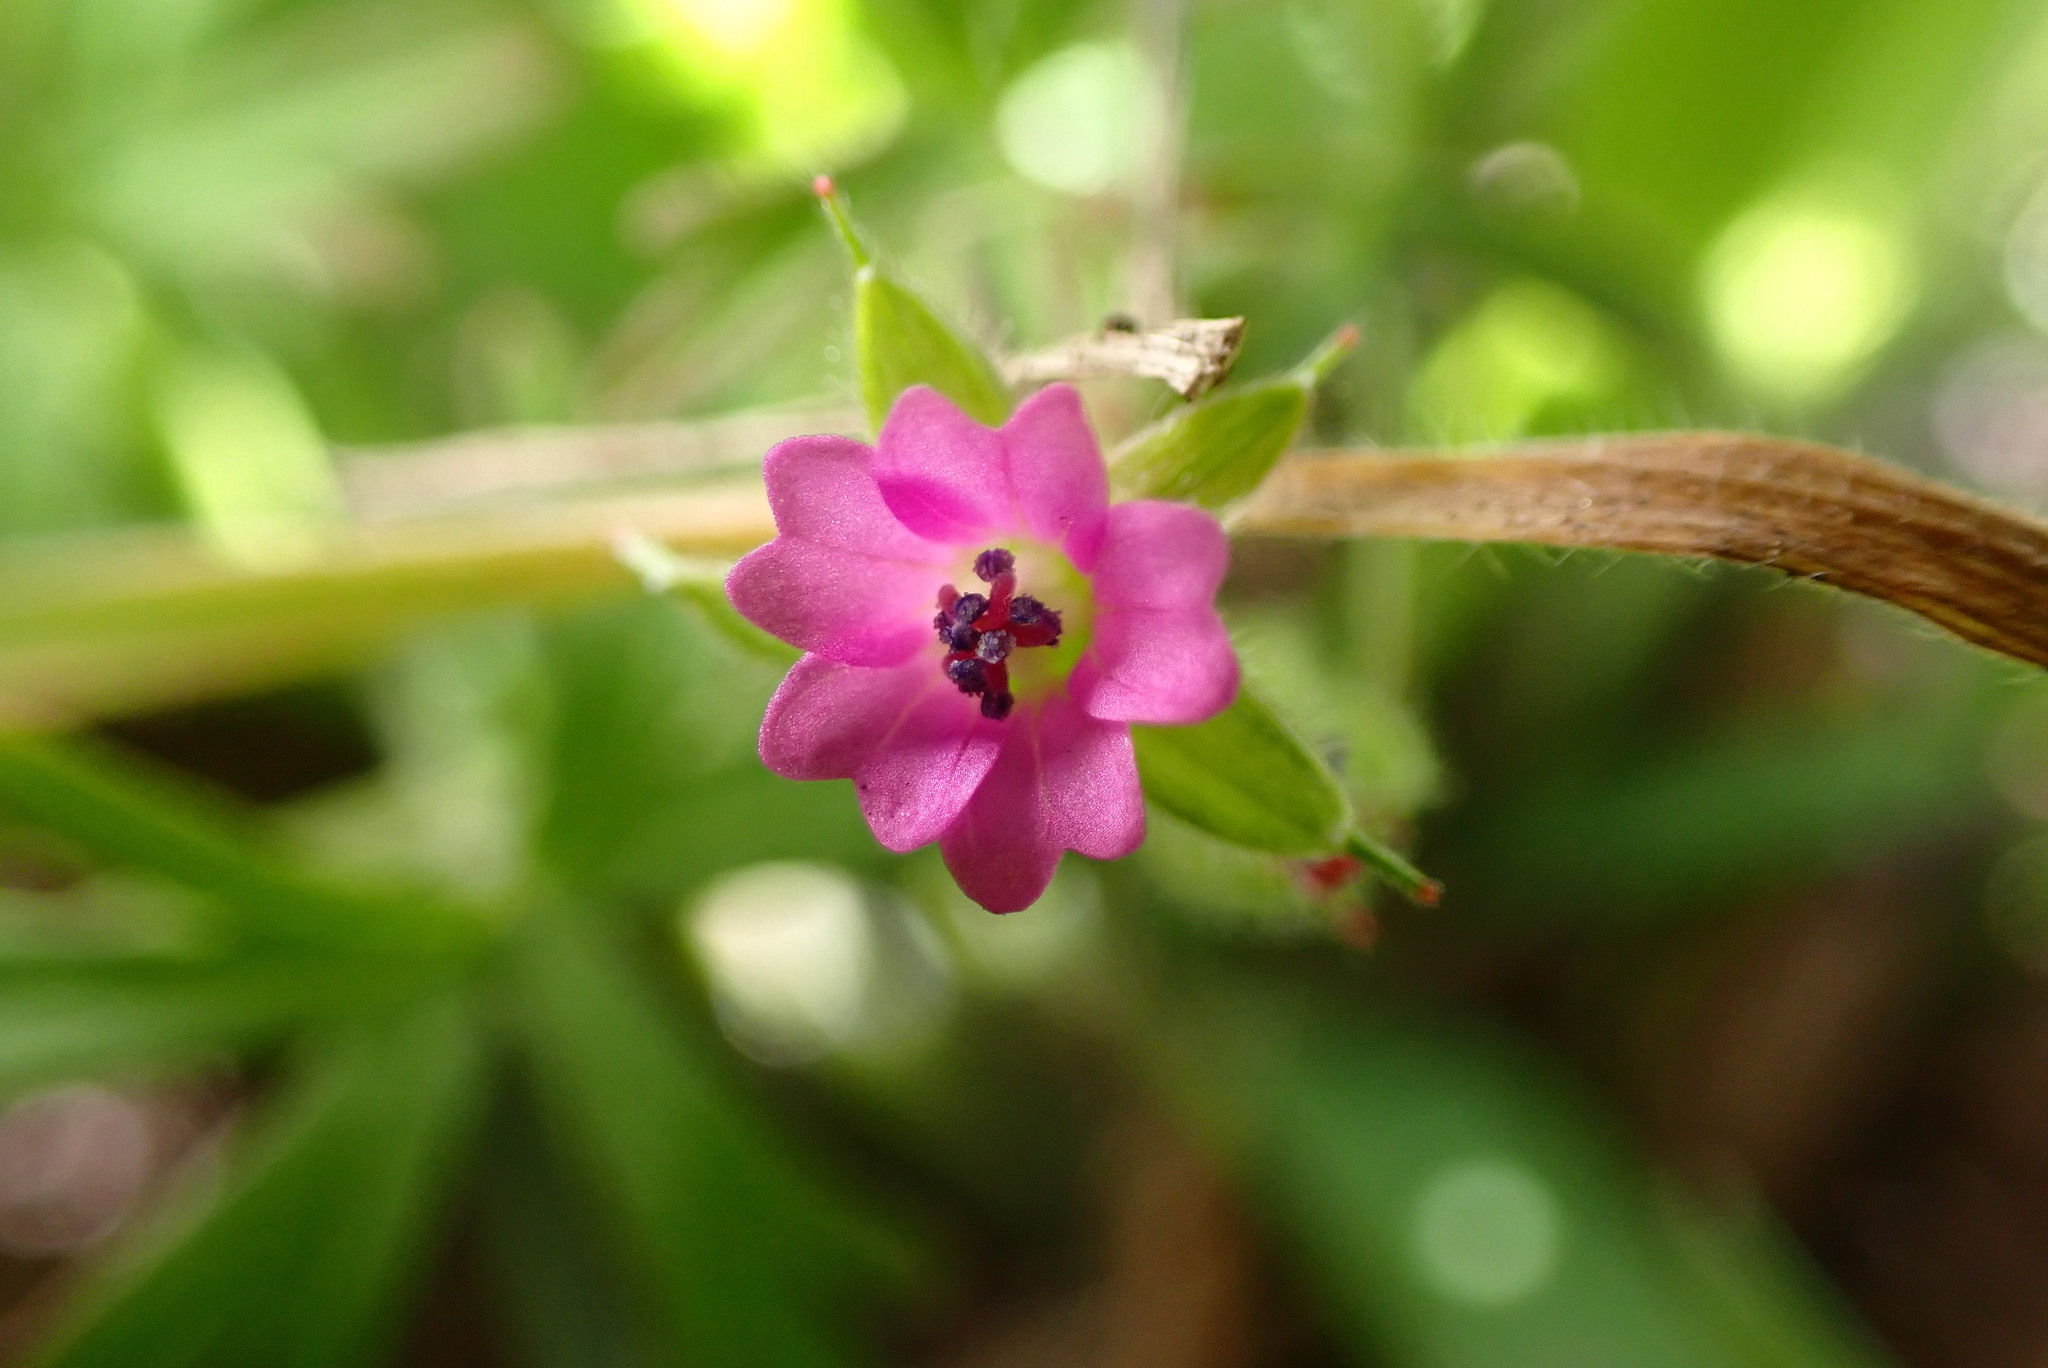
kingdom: Plantae
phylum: Tracheophyta
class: Magnoliopsida
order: Geraniales
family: Geraniaceae
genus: Geranium
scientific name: Geranium dissectum
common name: Cut-leaved crane's-bill
